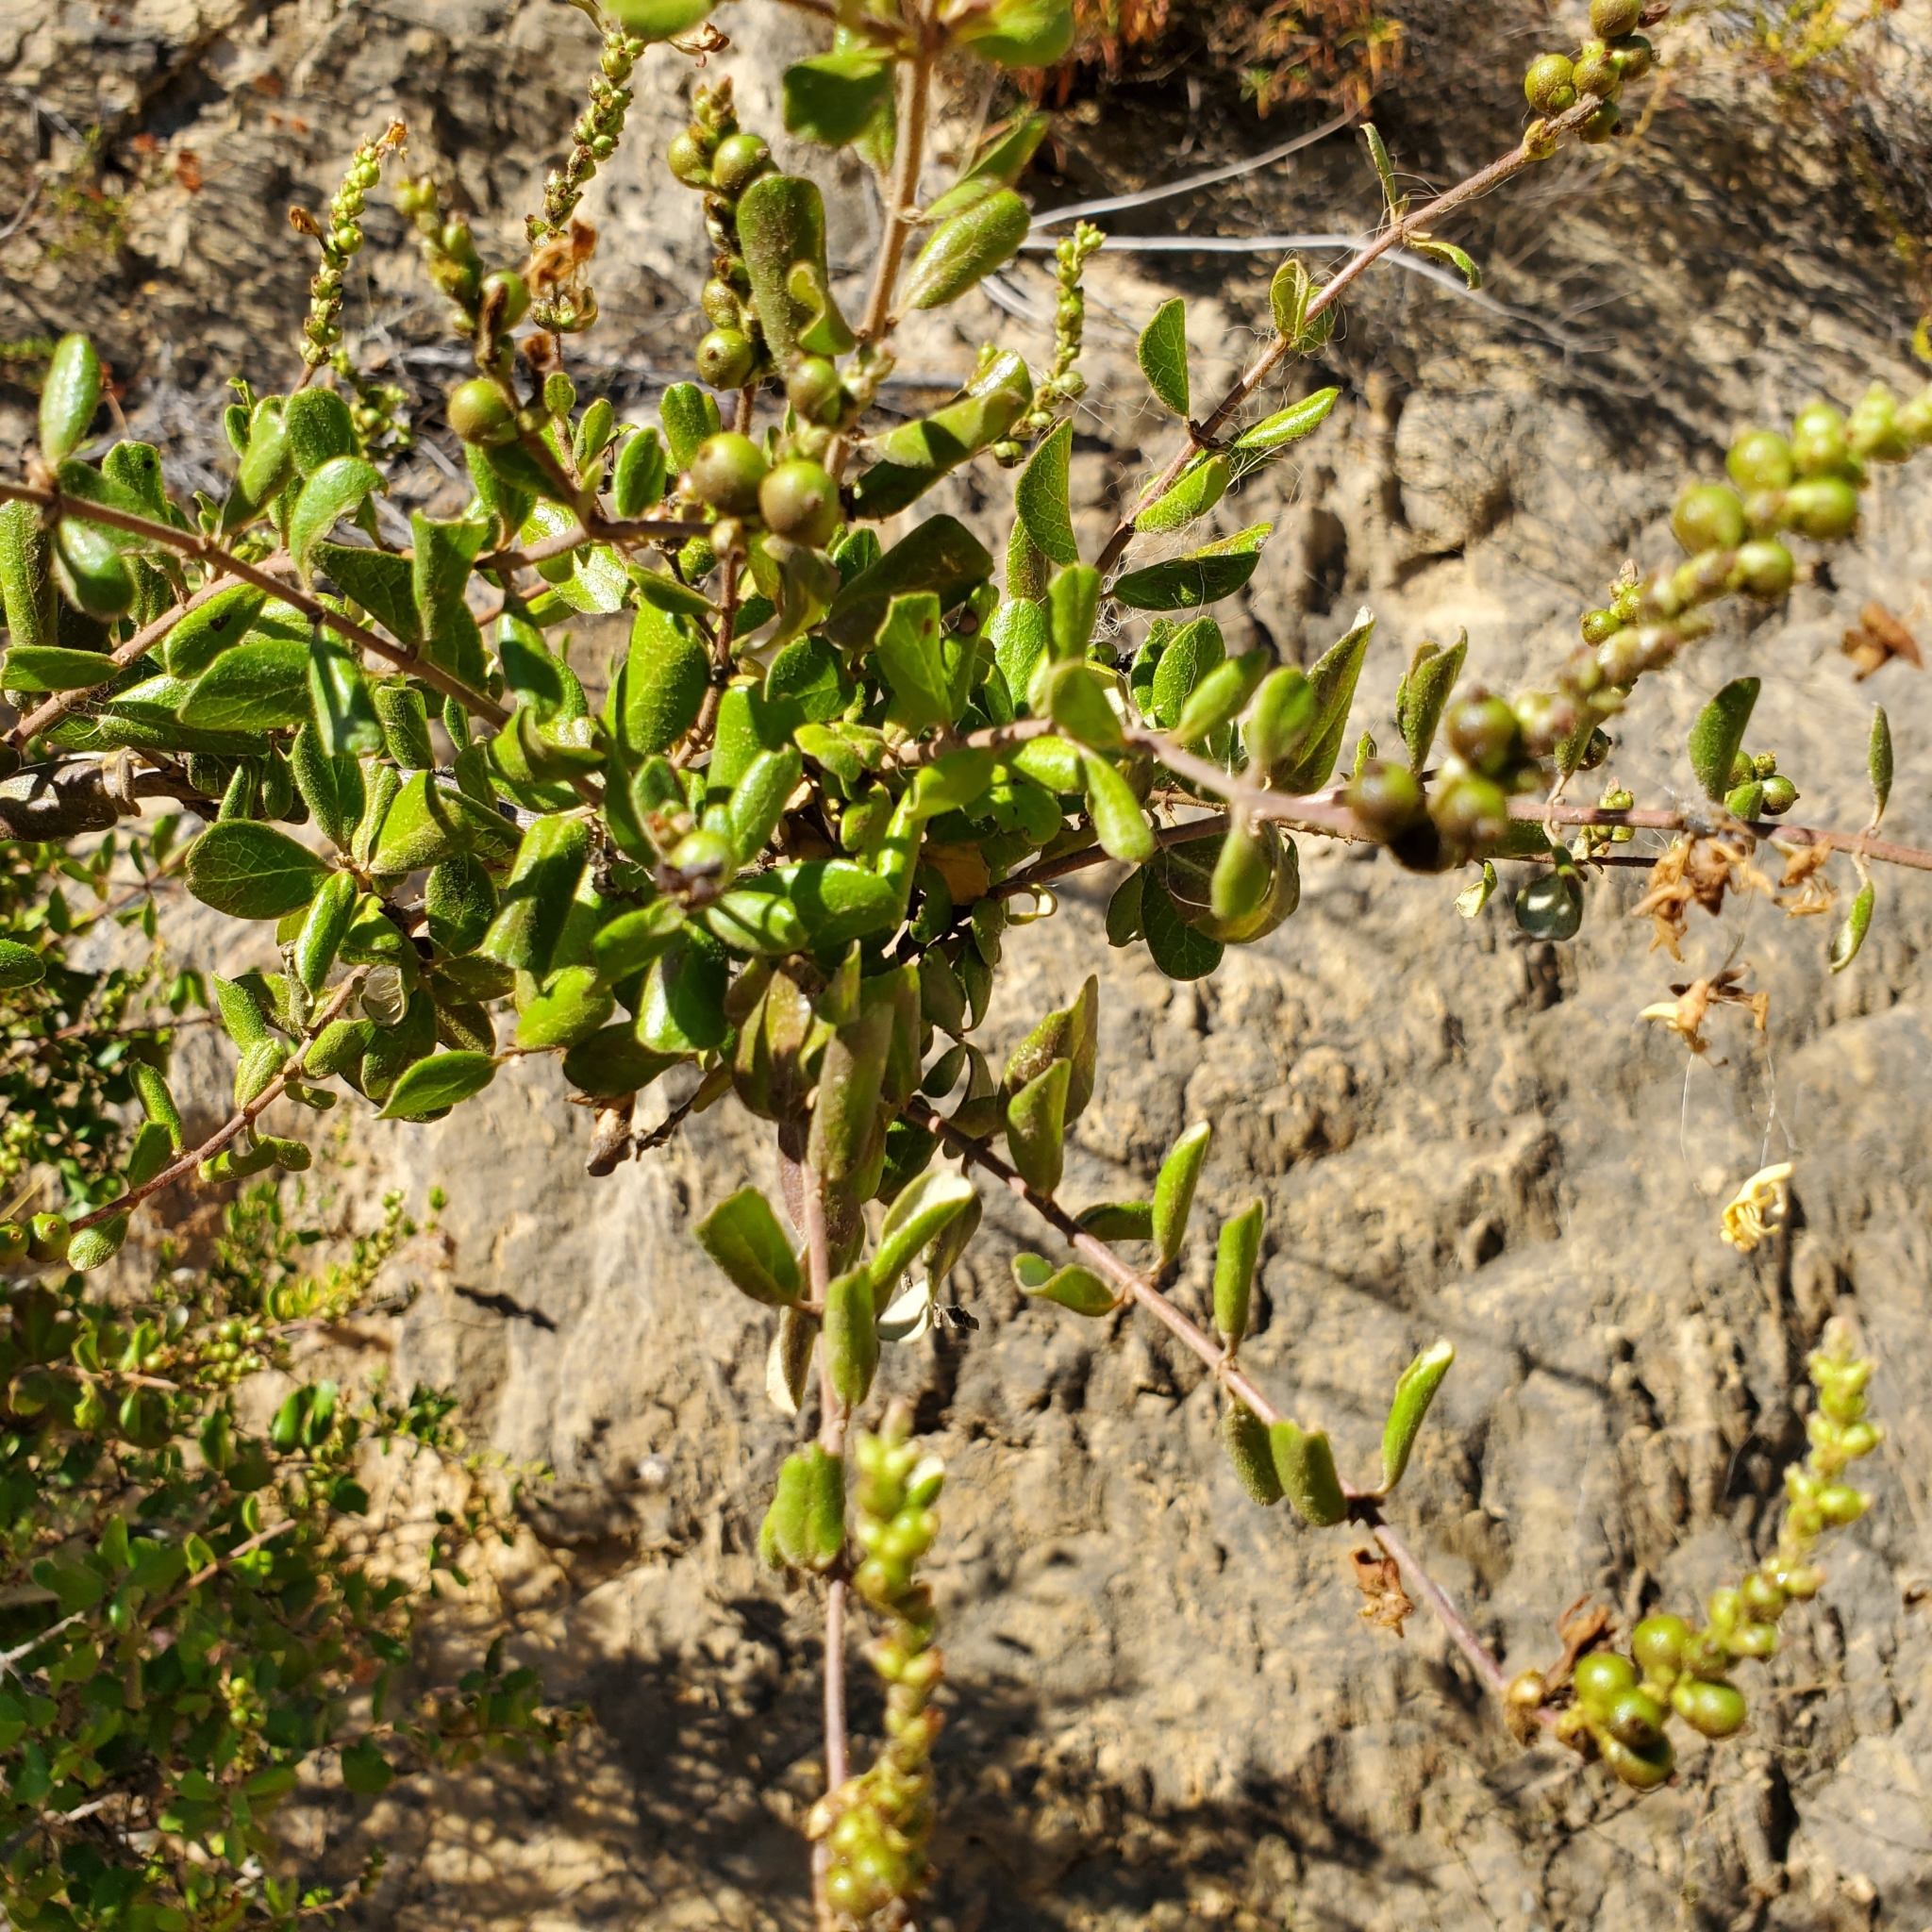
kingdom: Plantae
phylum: Tracheophyta
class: Magnoliopsida
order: Dipsacales
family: Caprifoliaceae
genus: Lonicera
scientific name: Lonicera subspicata
